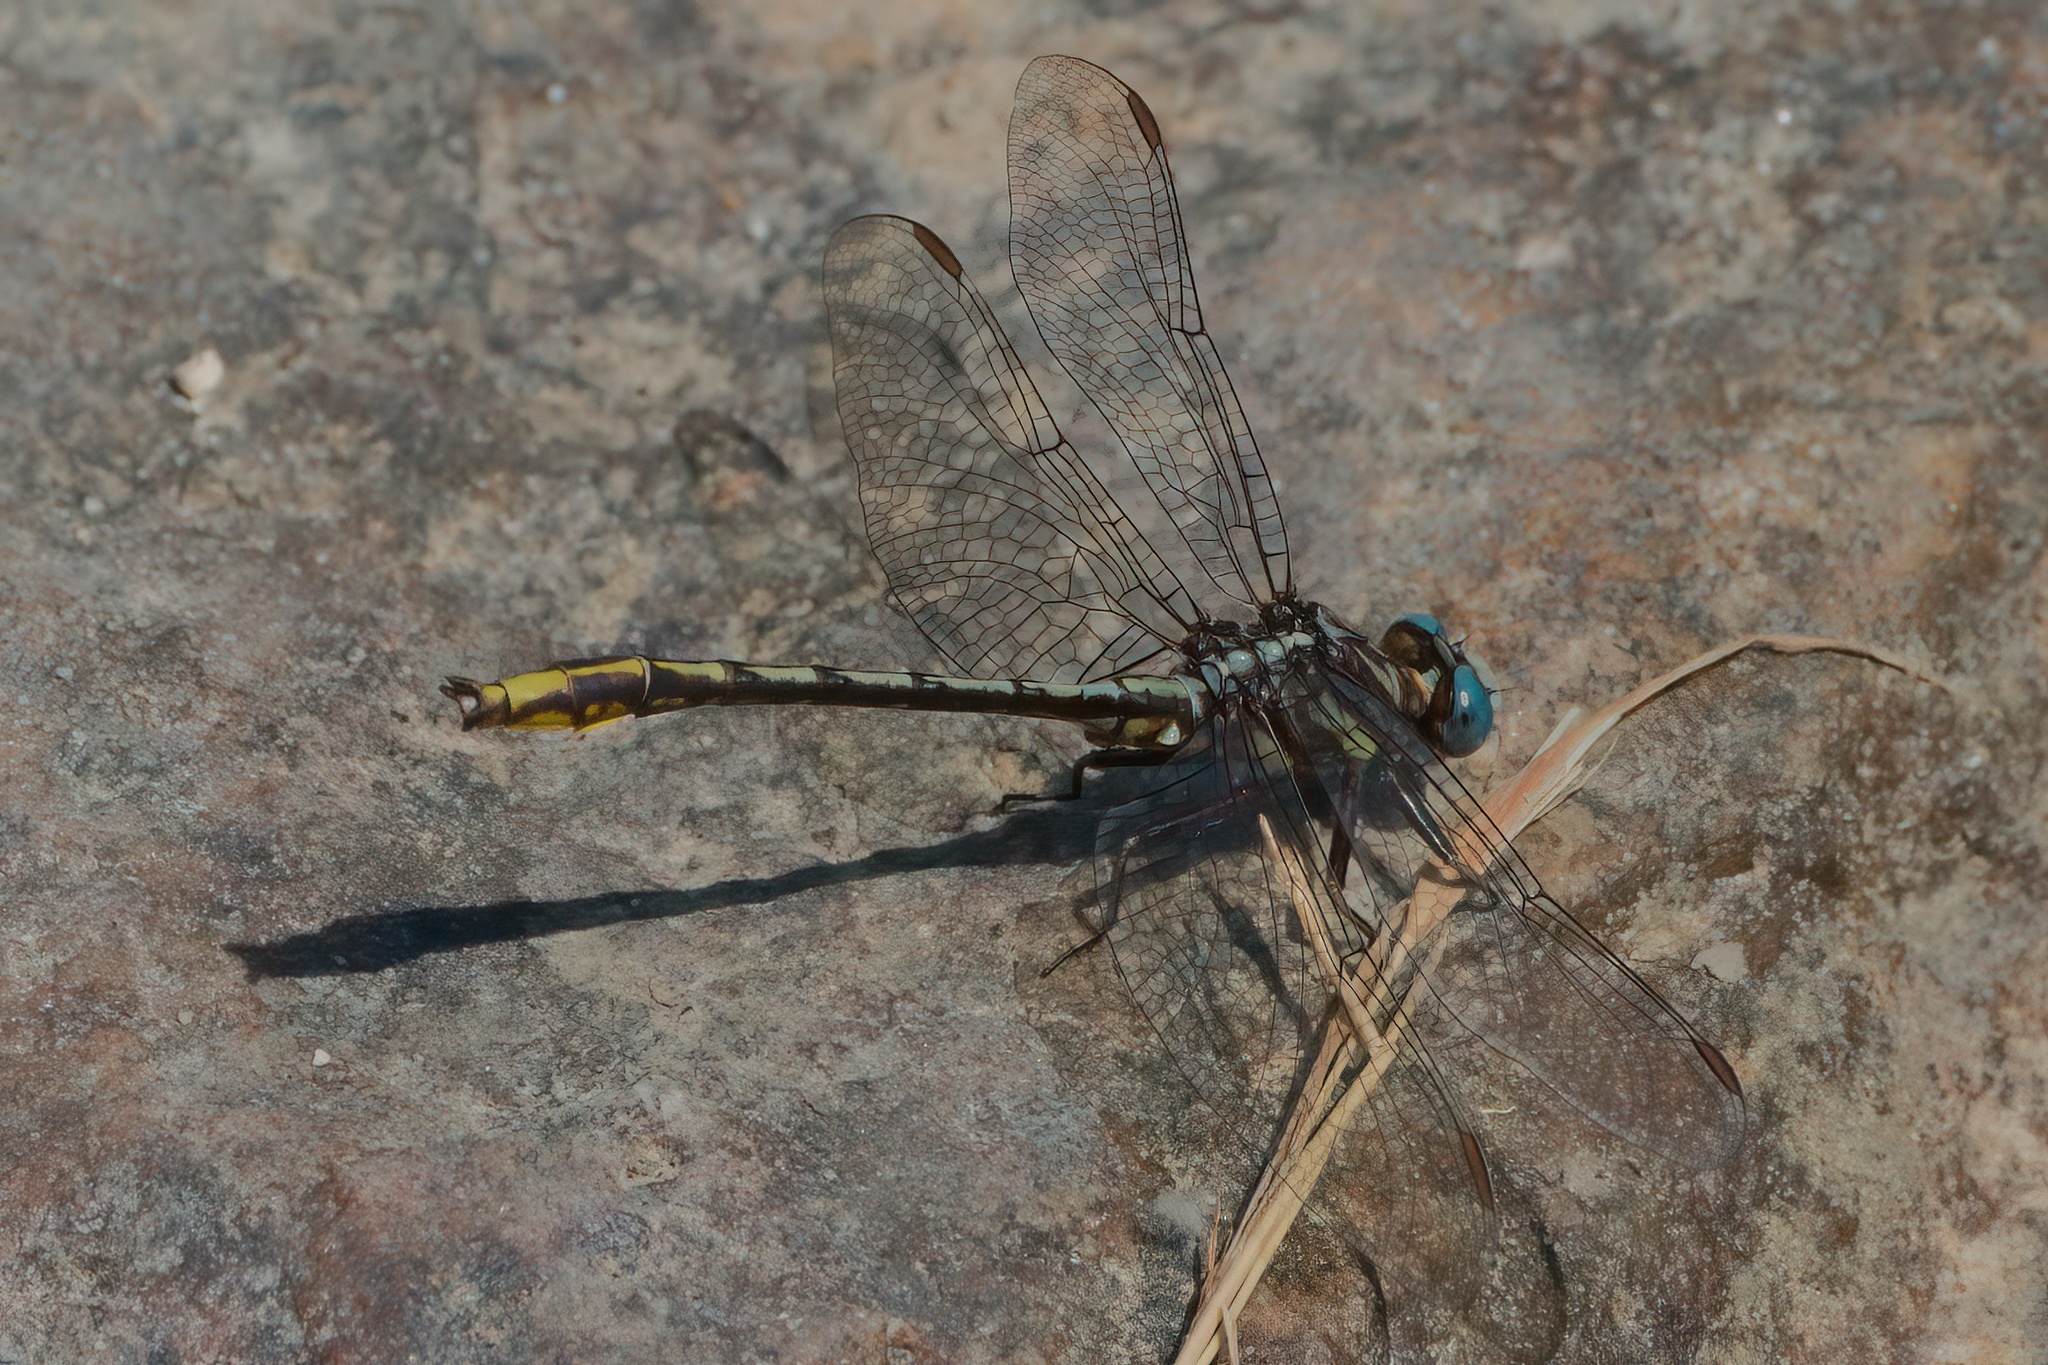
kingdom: Animalia
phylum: Arthropoda
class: Insecta
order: Odonata
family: Gomphidae
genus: Phanogomphus
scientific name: Phanogomphus exilis
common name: Lancet clubtail
